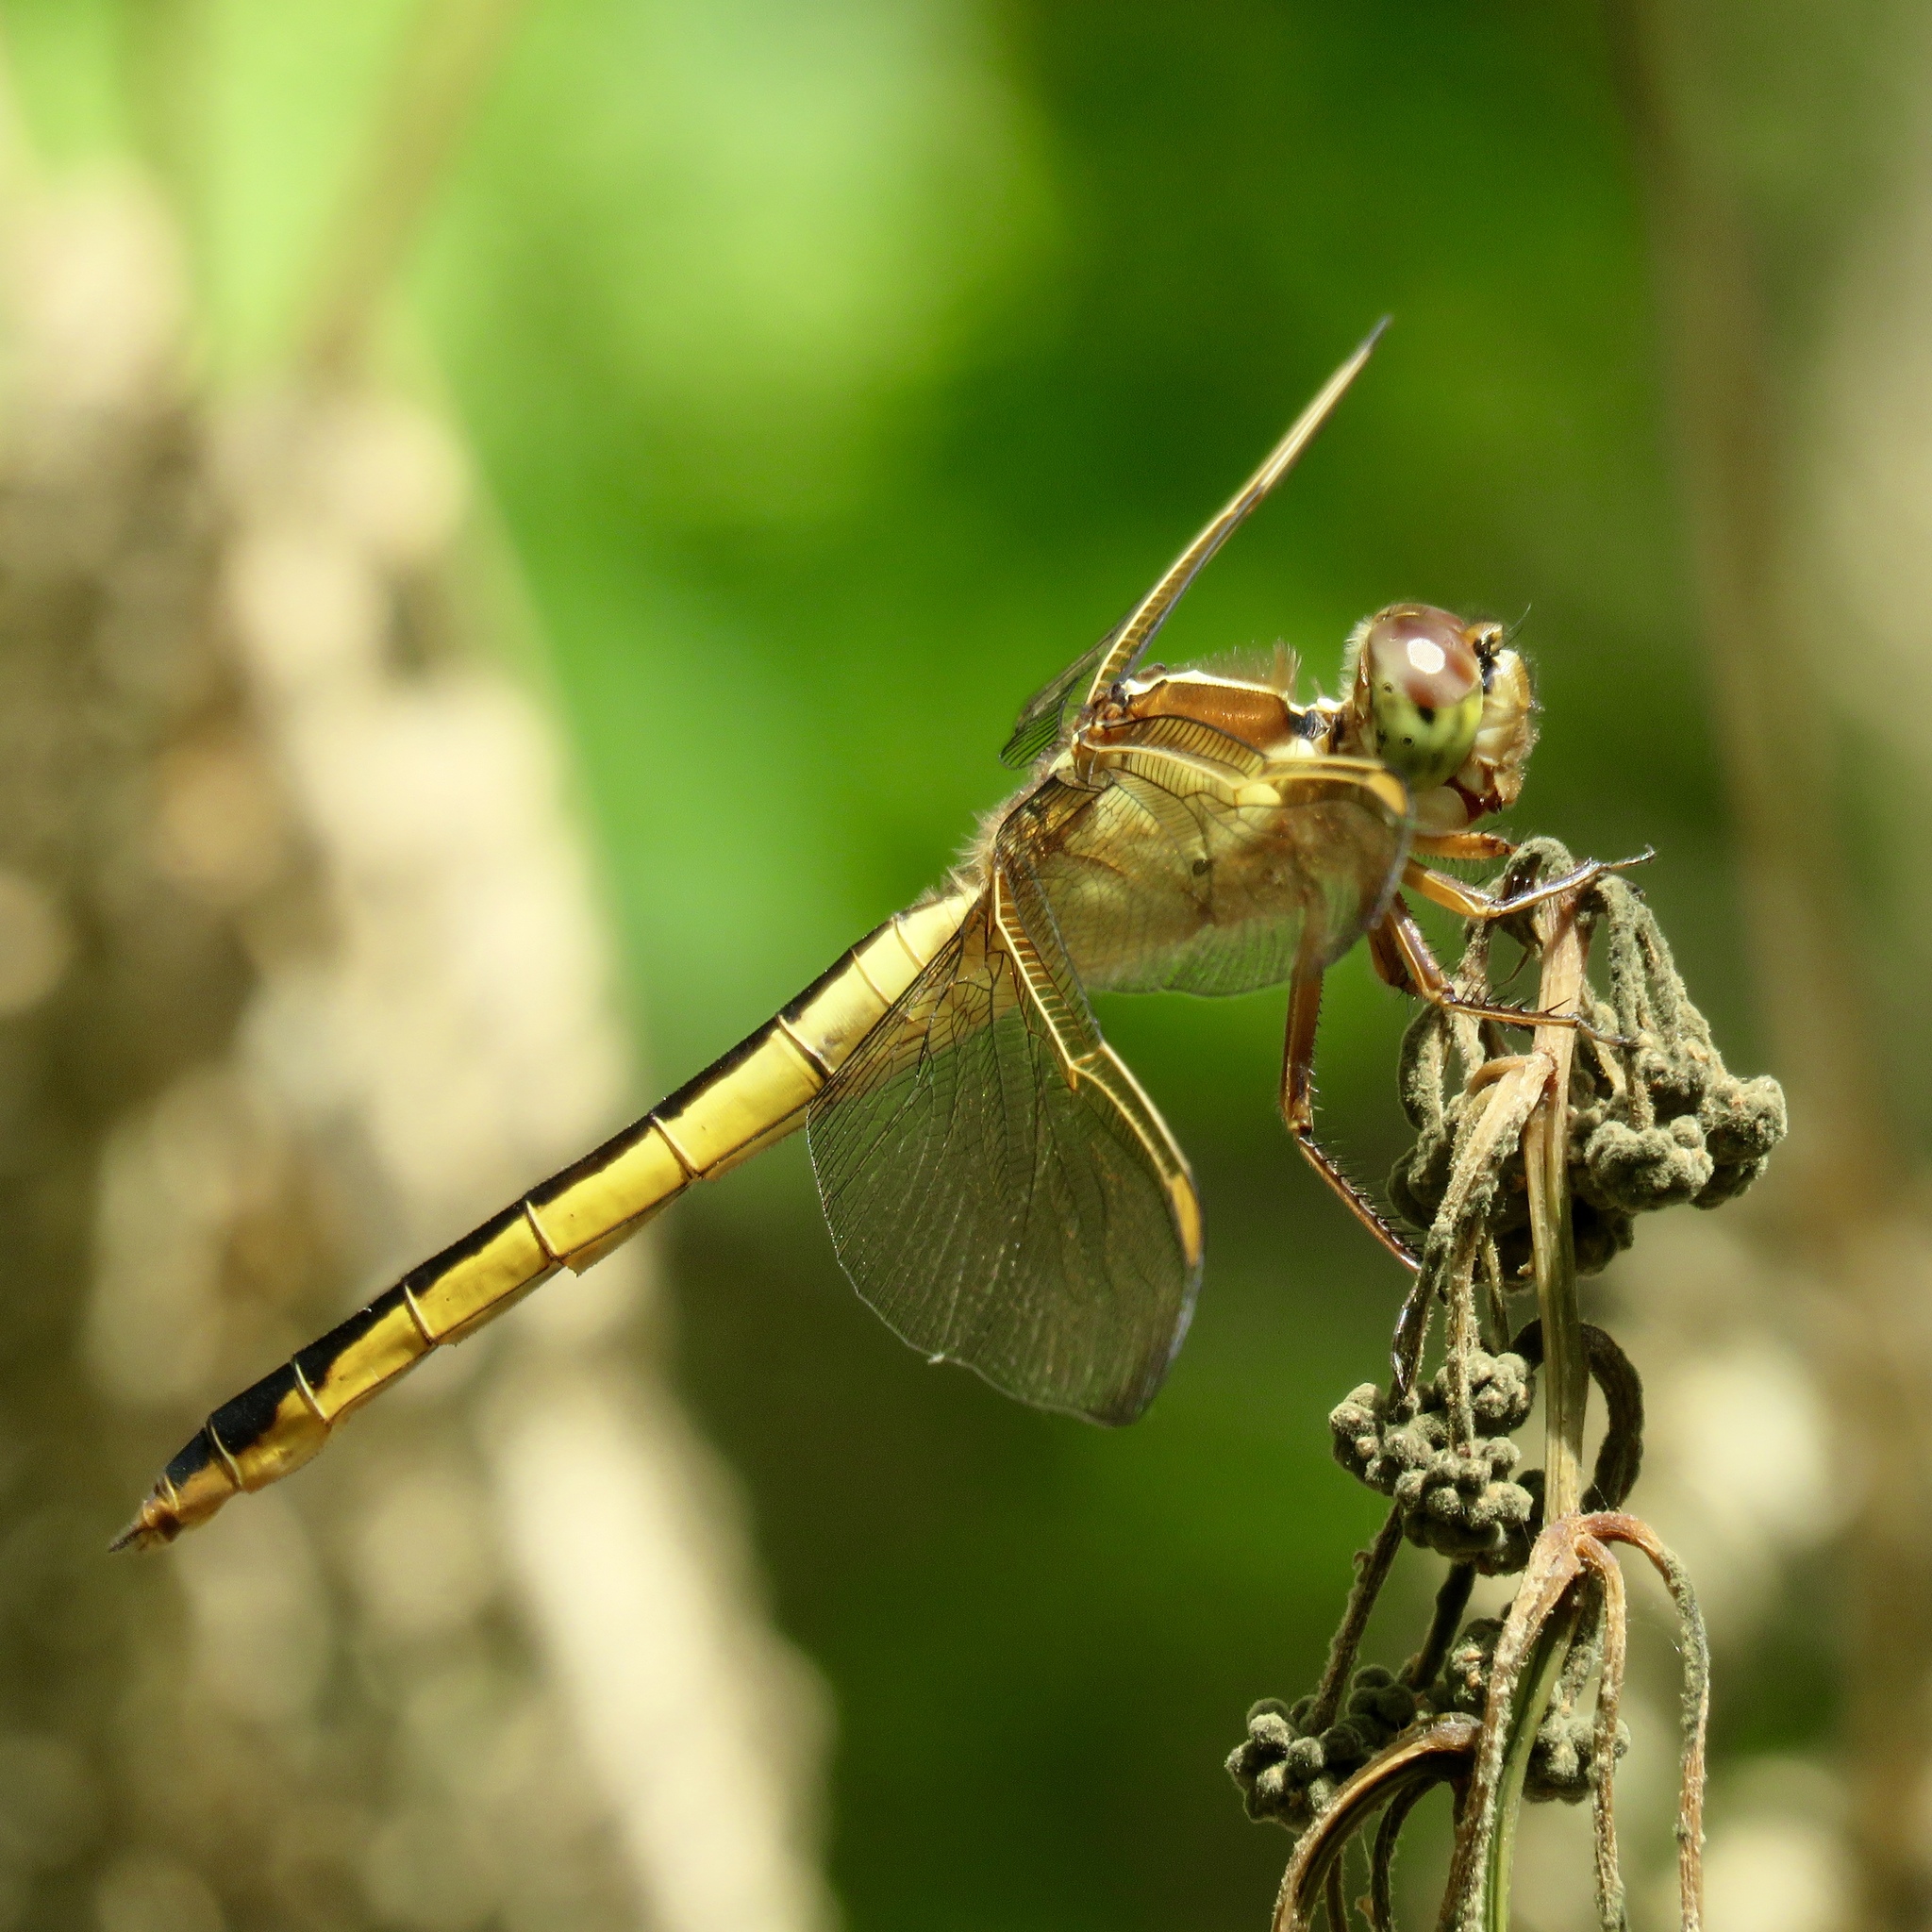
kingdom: Animalia
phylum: Arthropoda
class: Insecta
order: Odonata
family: Libellulidae
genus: Libellula
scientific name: Libellula needhami
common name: Needham's skimmer
